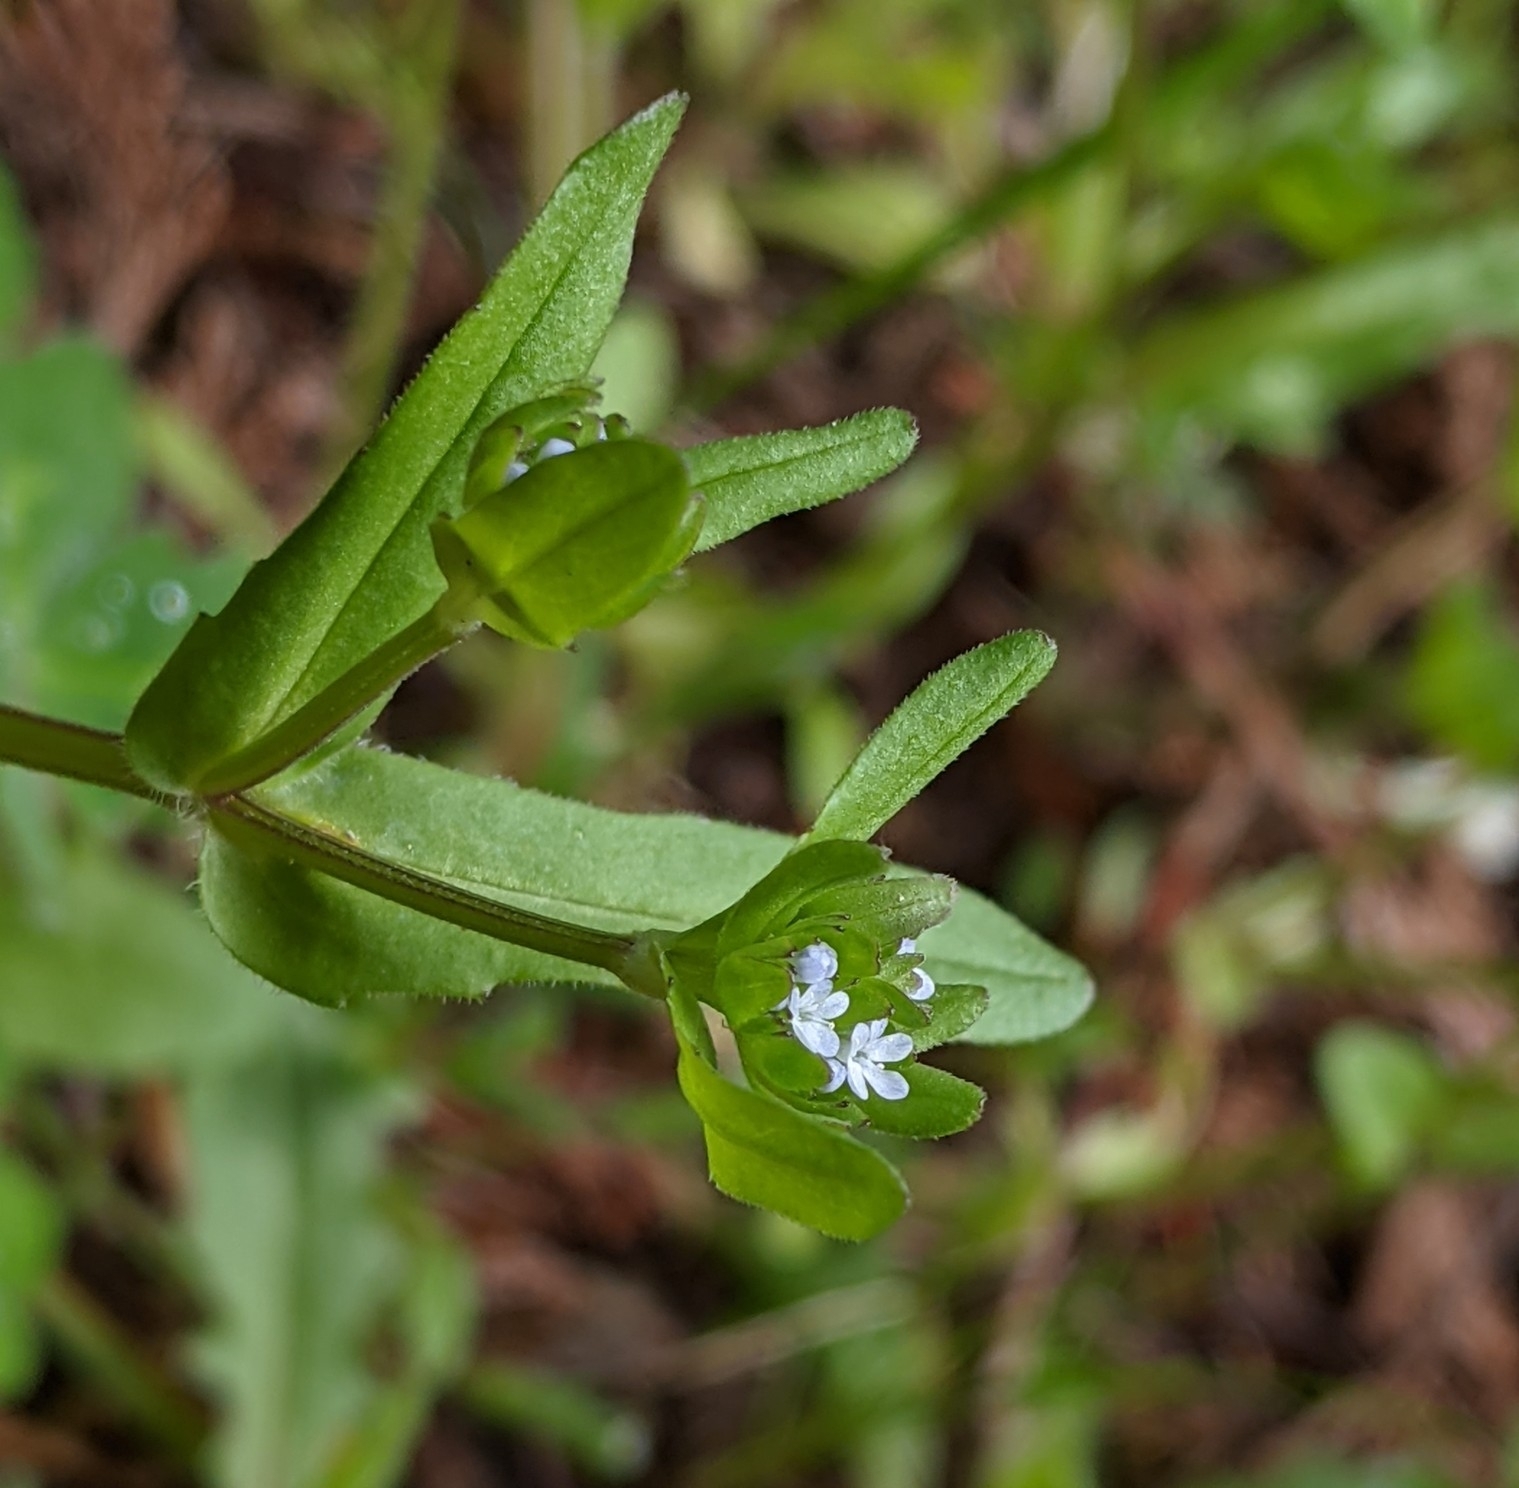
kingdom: Plantae
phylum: Tracheophyta
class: Magnoliopsida
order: Dipsacales
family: Caprifoliaceae
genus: Valerianella
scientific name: Valerianella locusta
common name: Common cornsalad
